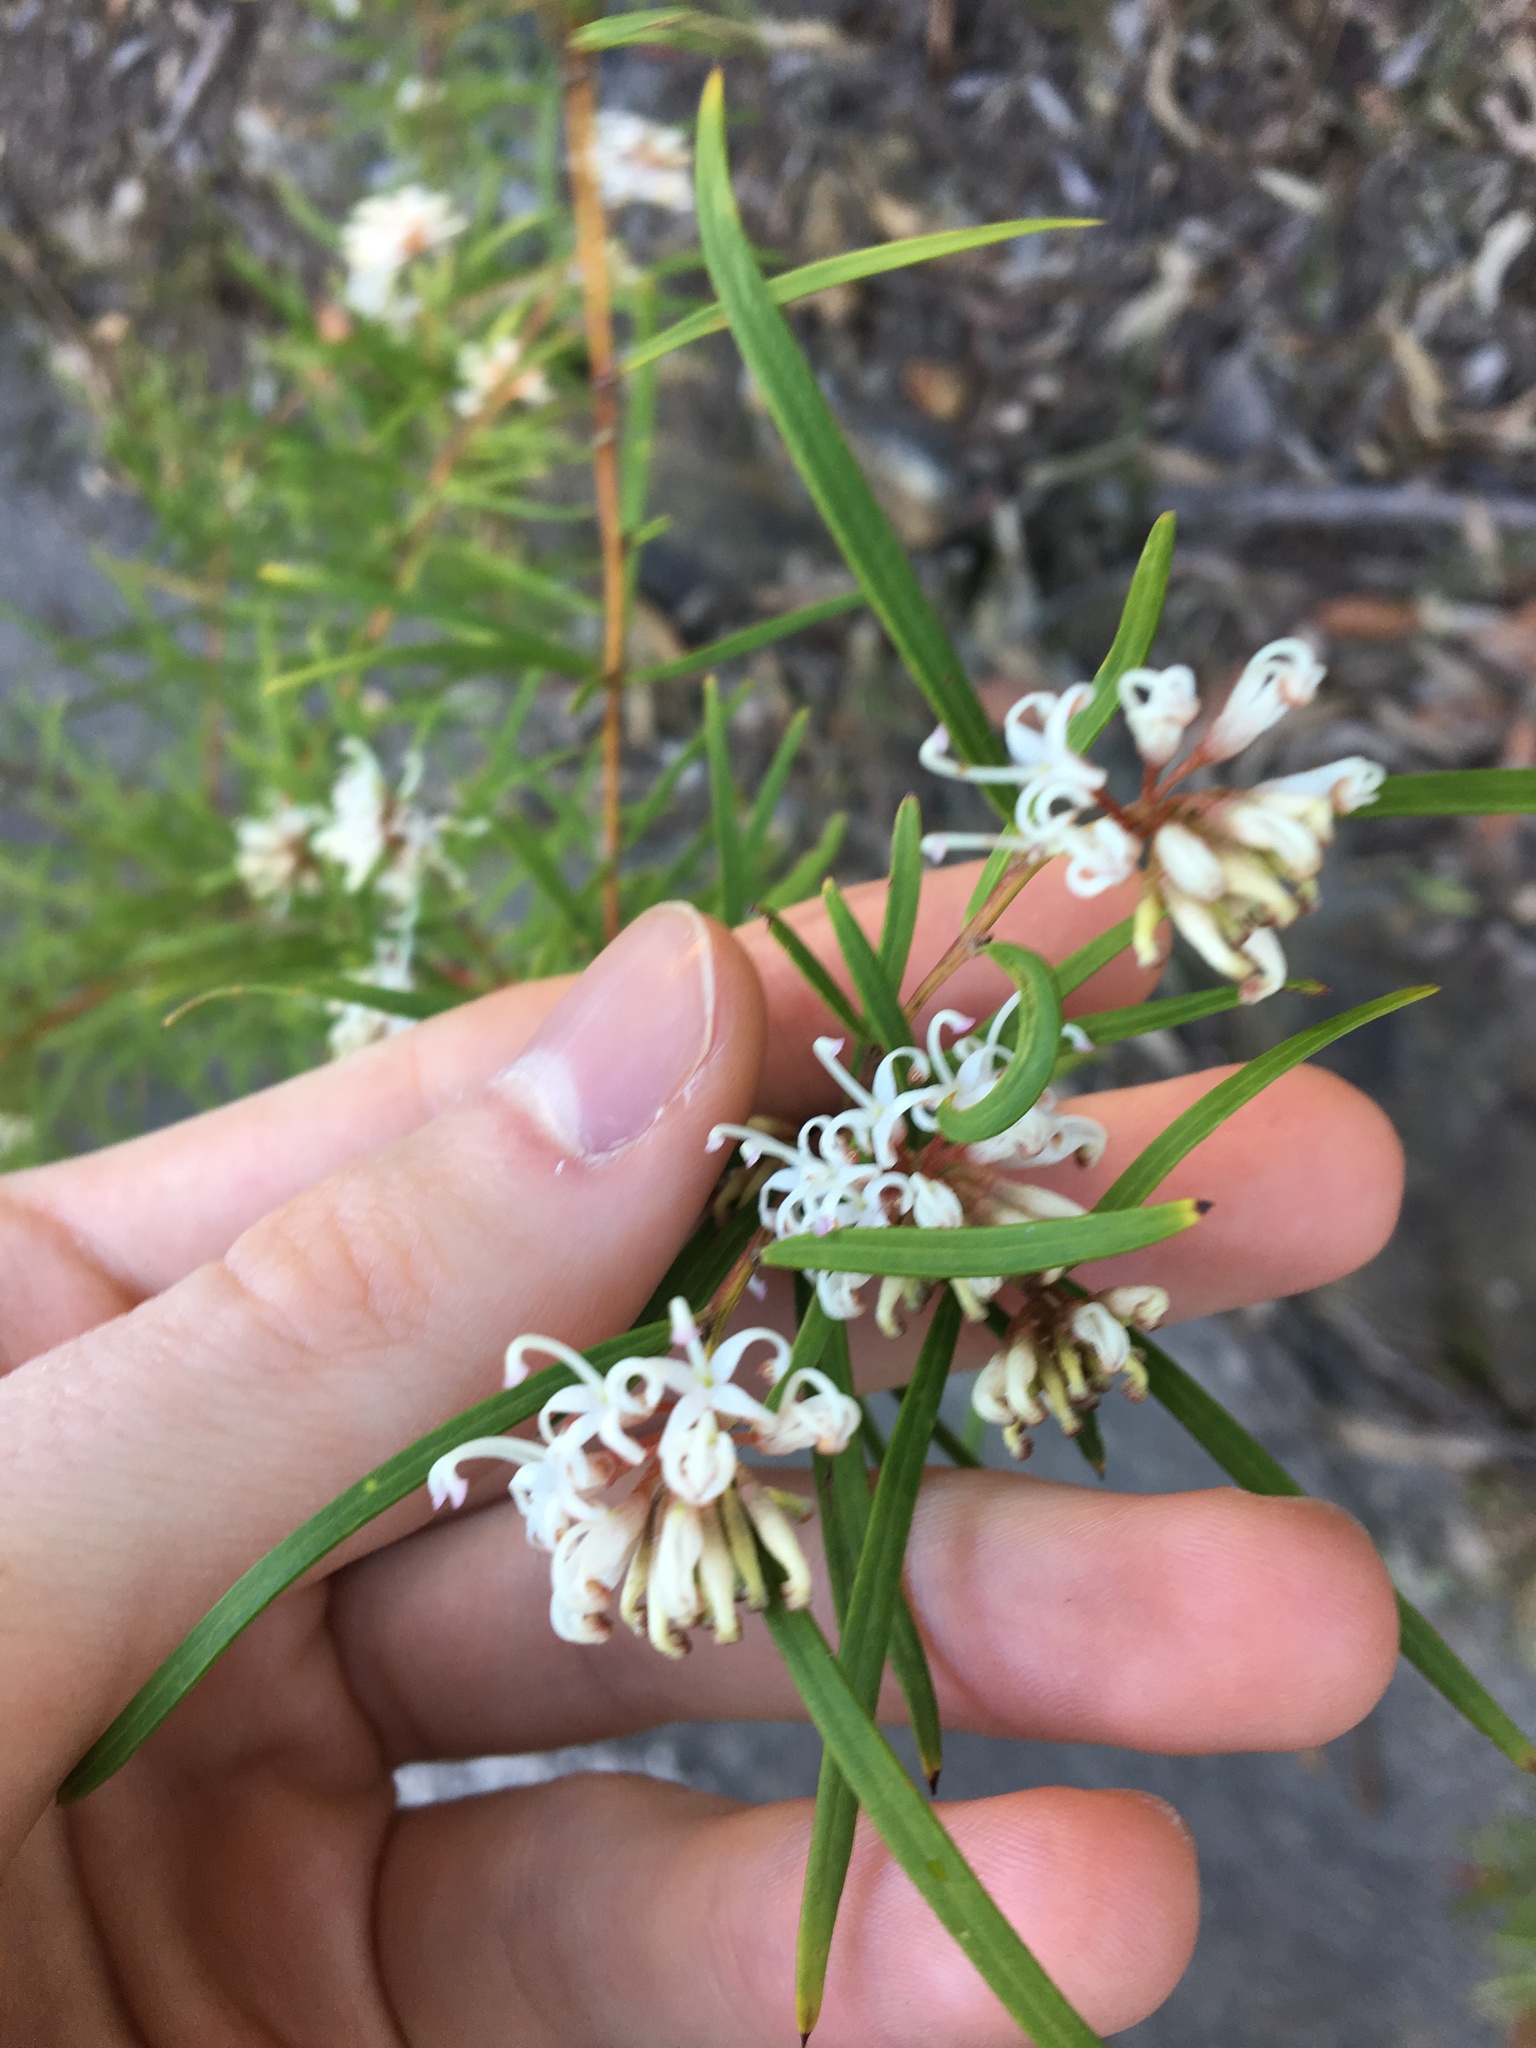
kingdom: Plantae
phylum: Tracheophyta
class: Magnoliopsida
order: Proteales
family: Proteaceae
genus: Grevillea
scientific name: Grevillea linearifolia
